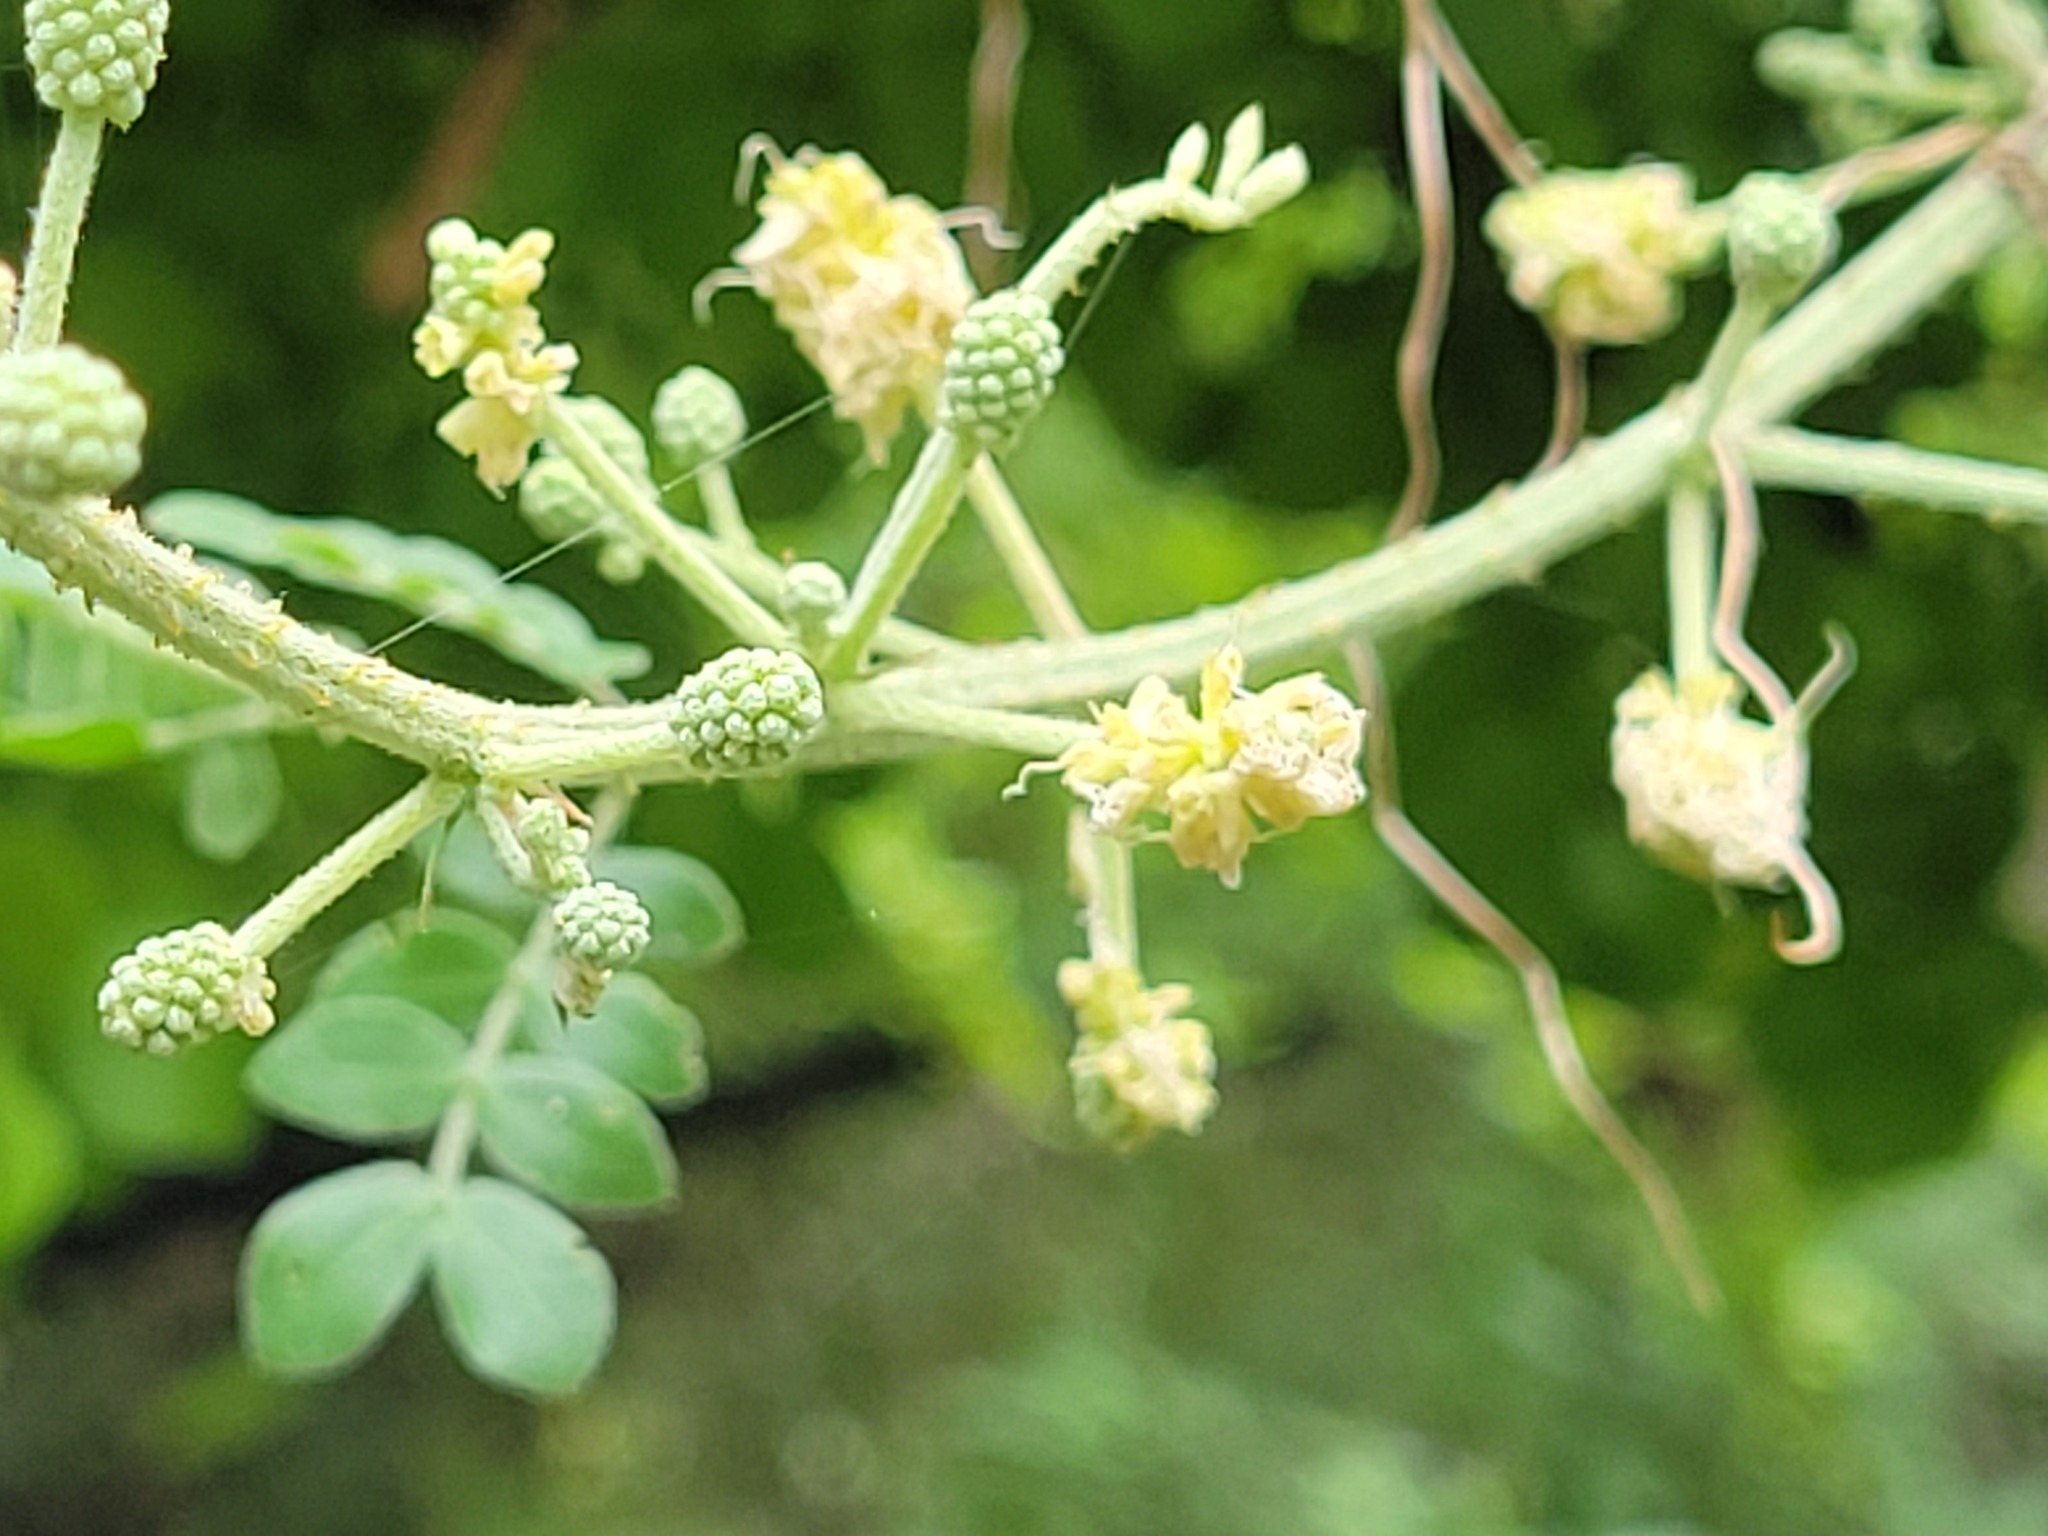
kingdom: Plantae
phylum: Tracheophyta
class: Magnoliopsida
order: Fabales
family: Fabaceae
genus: Mimosa
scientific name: Mimosa malacophylla
